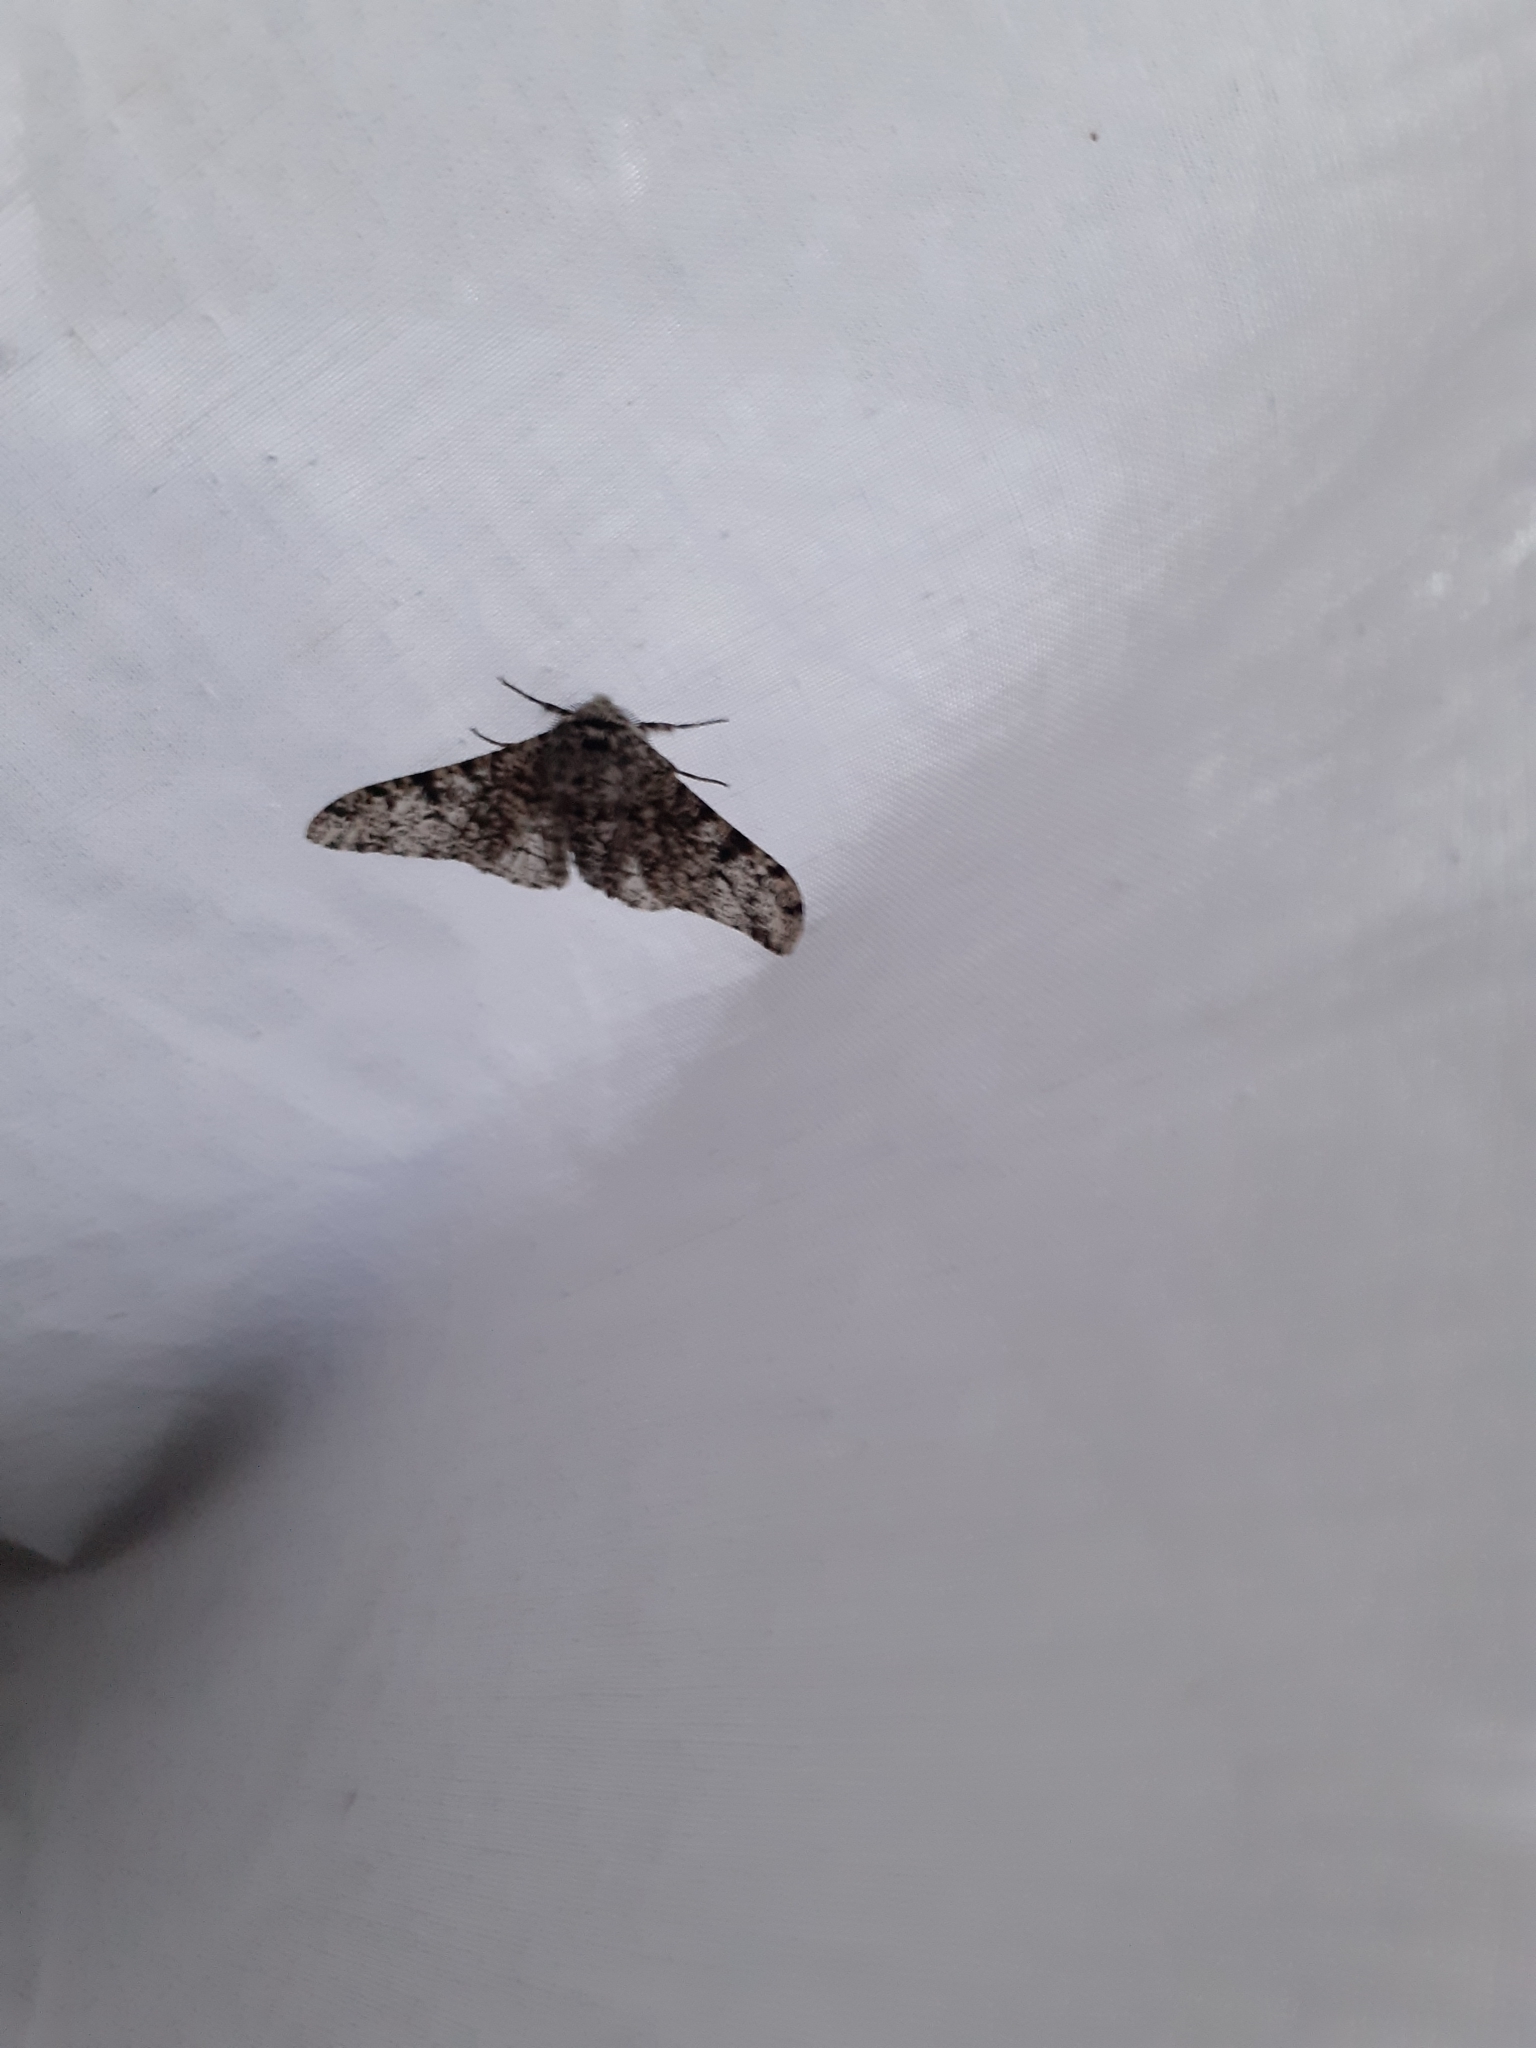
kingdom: Animalia
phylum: Arthropoda
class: Insecta
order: Lepidoptera
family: Geometridae
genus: Biston
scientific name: Biston betularia
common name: Peppered moth
